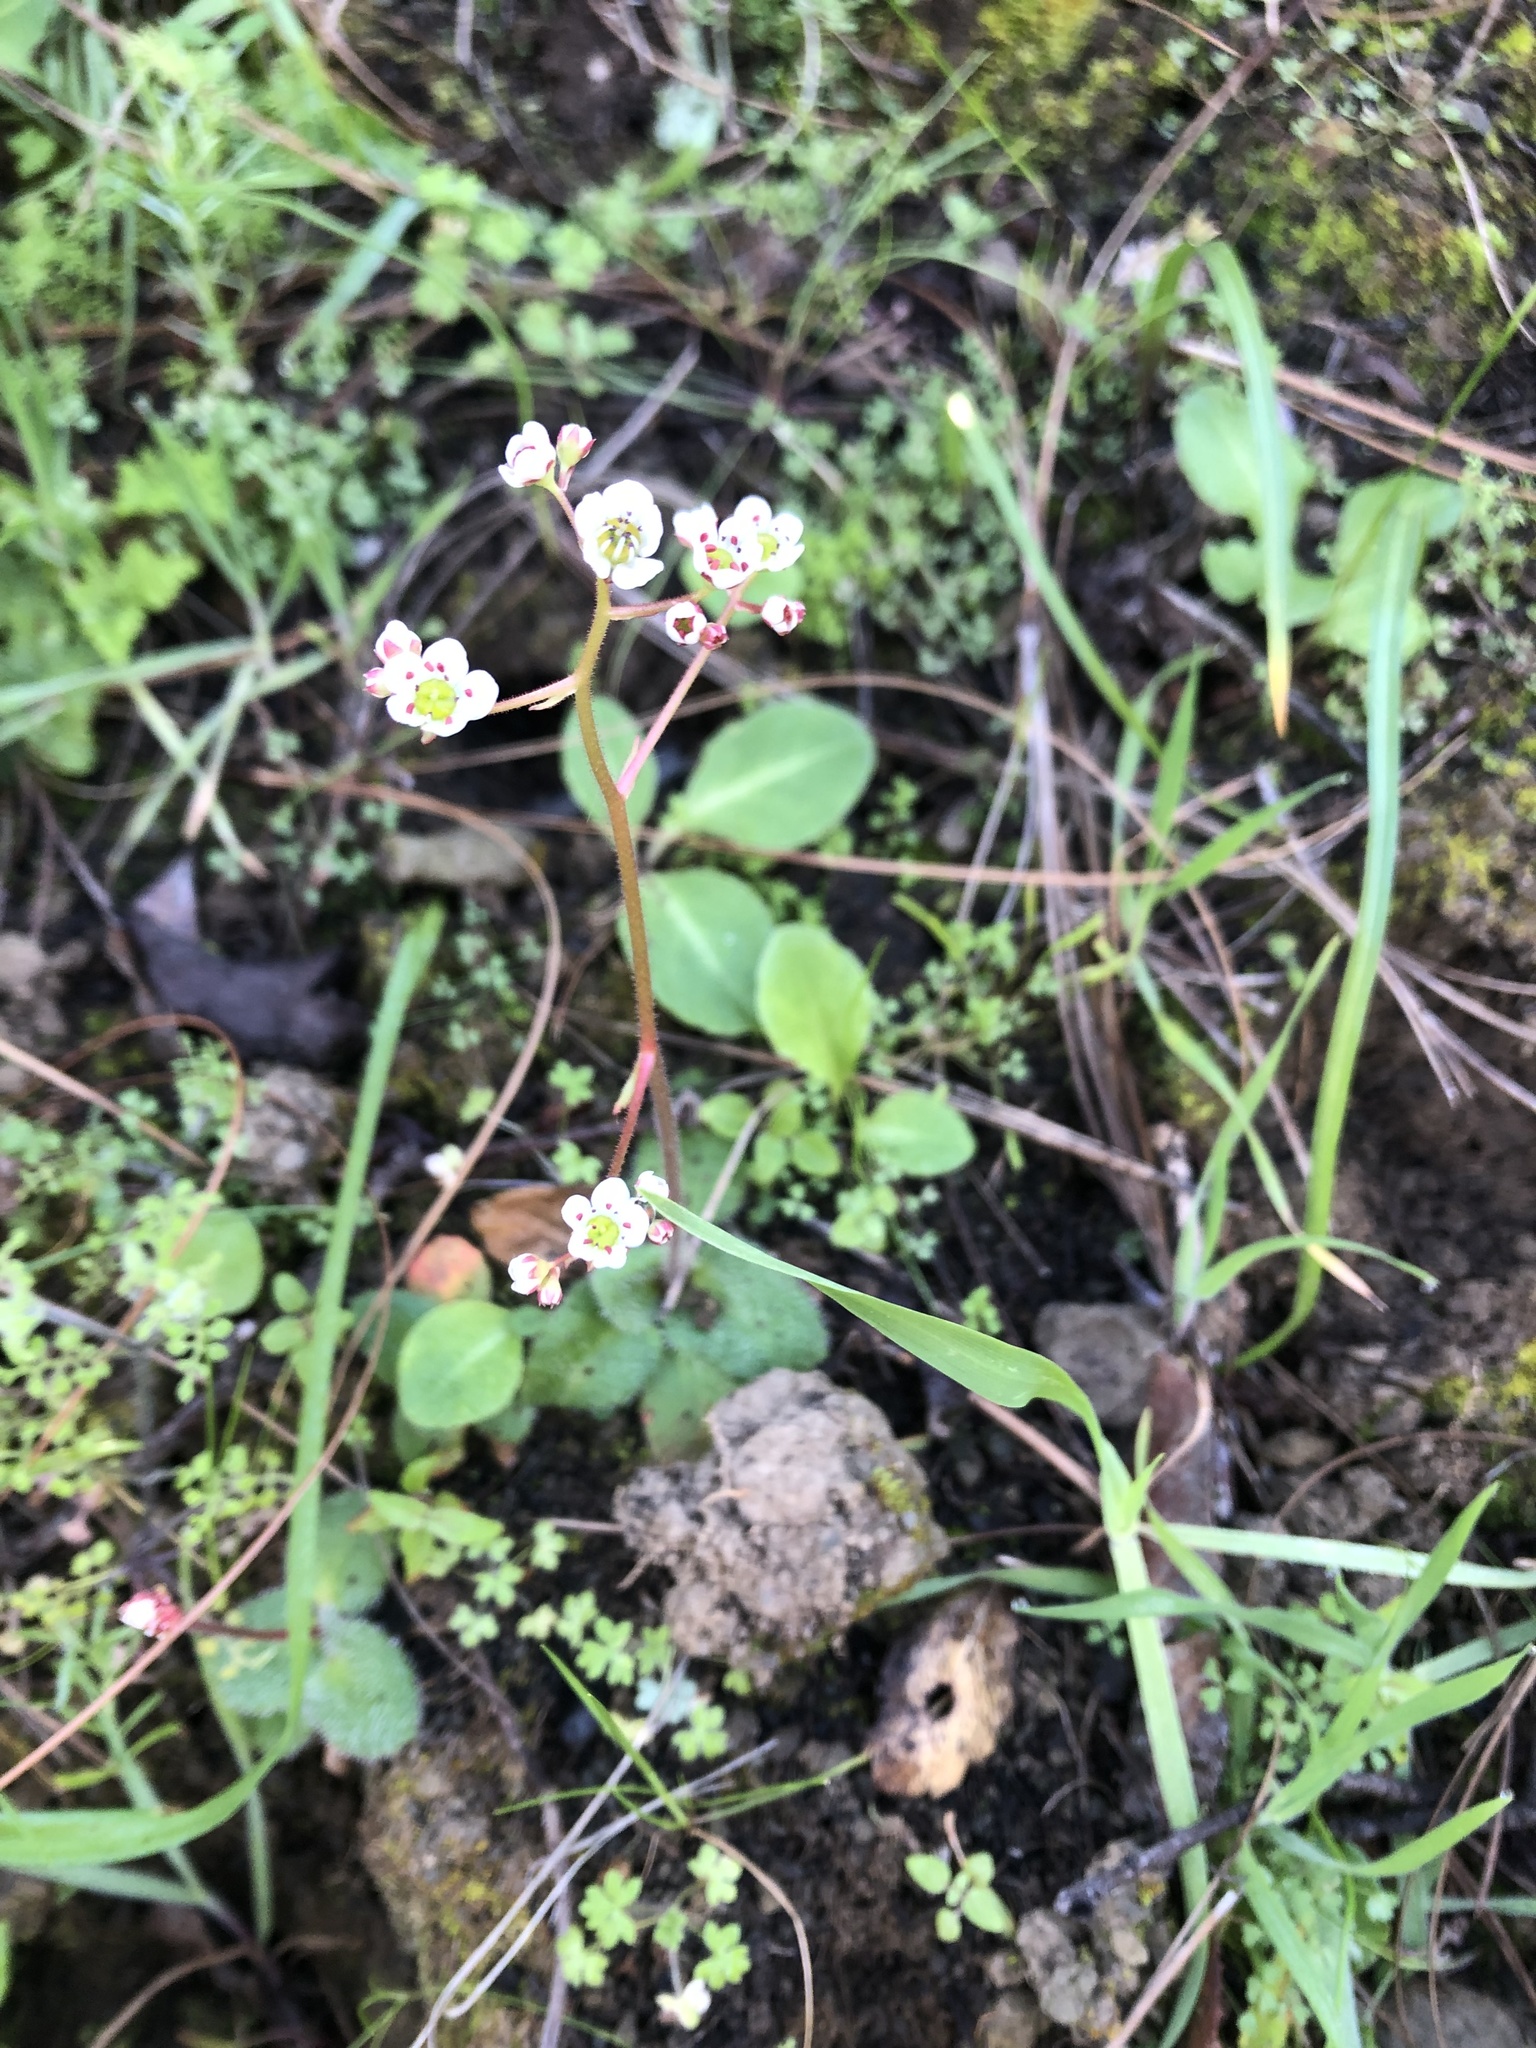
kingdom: Plantae
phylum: Tracheophyta
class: Magnoliopsida
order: Saxifragales
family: Saxifragaceae
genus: Micranthes
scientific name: Micranthes californica
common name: California saxifrage
